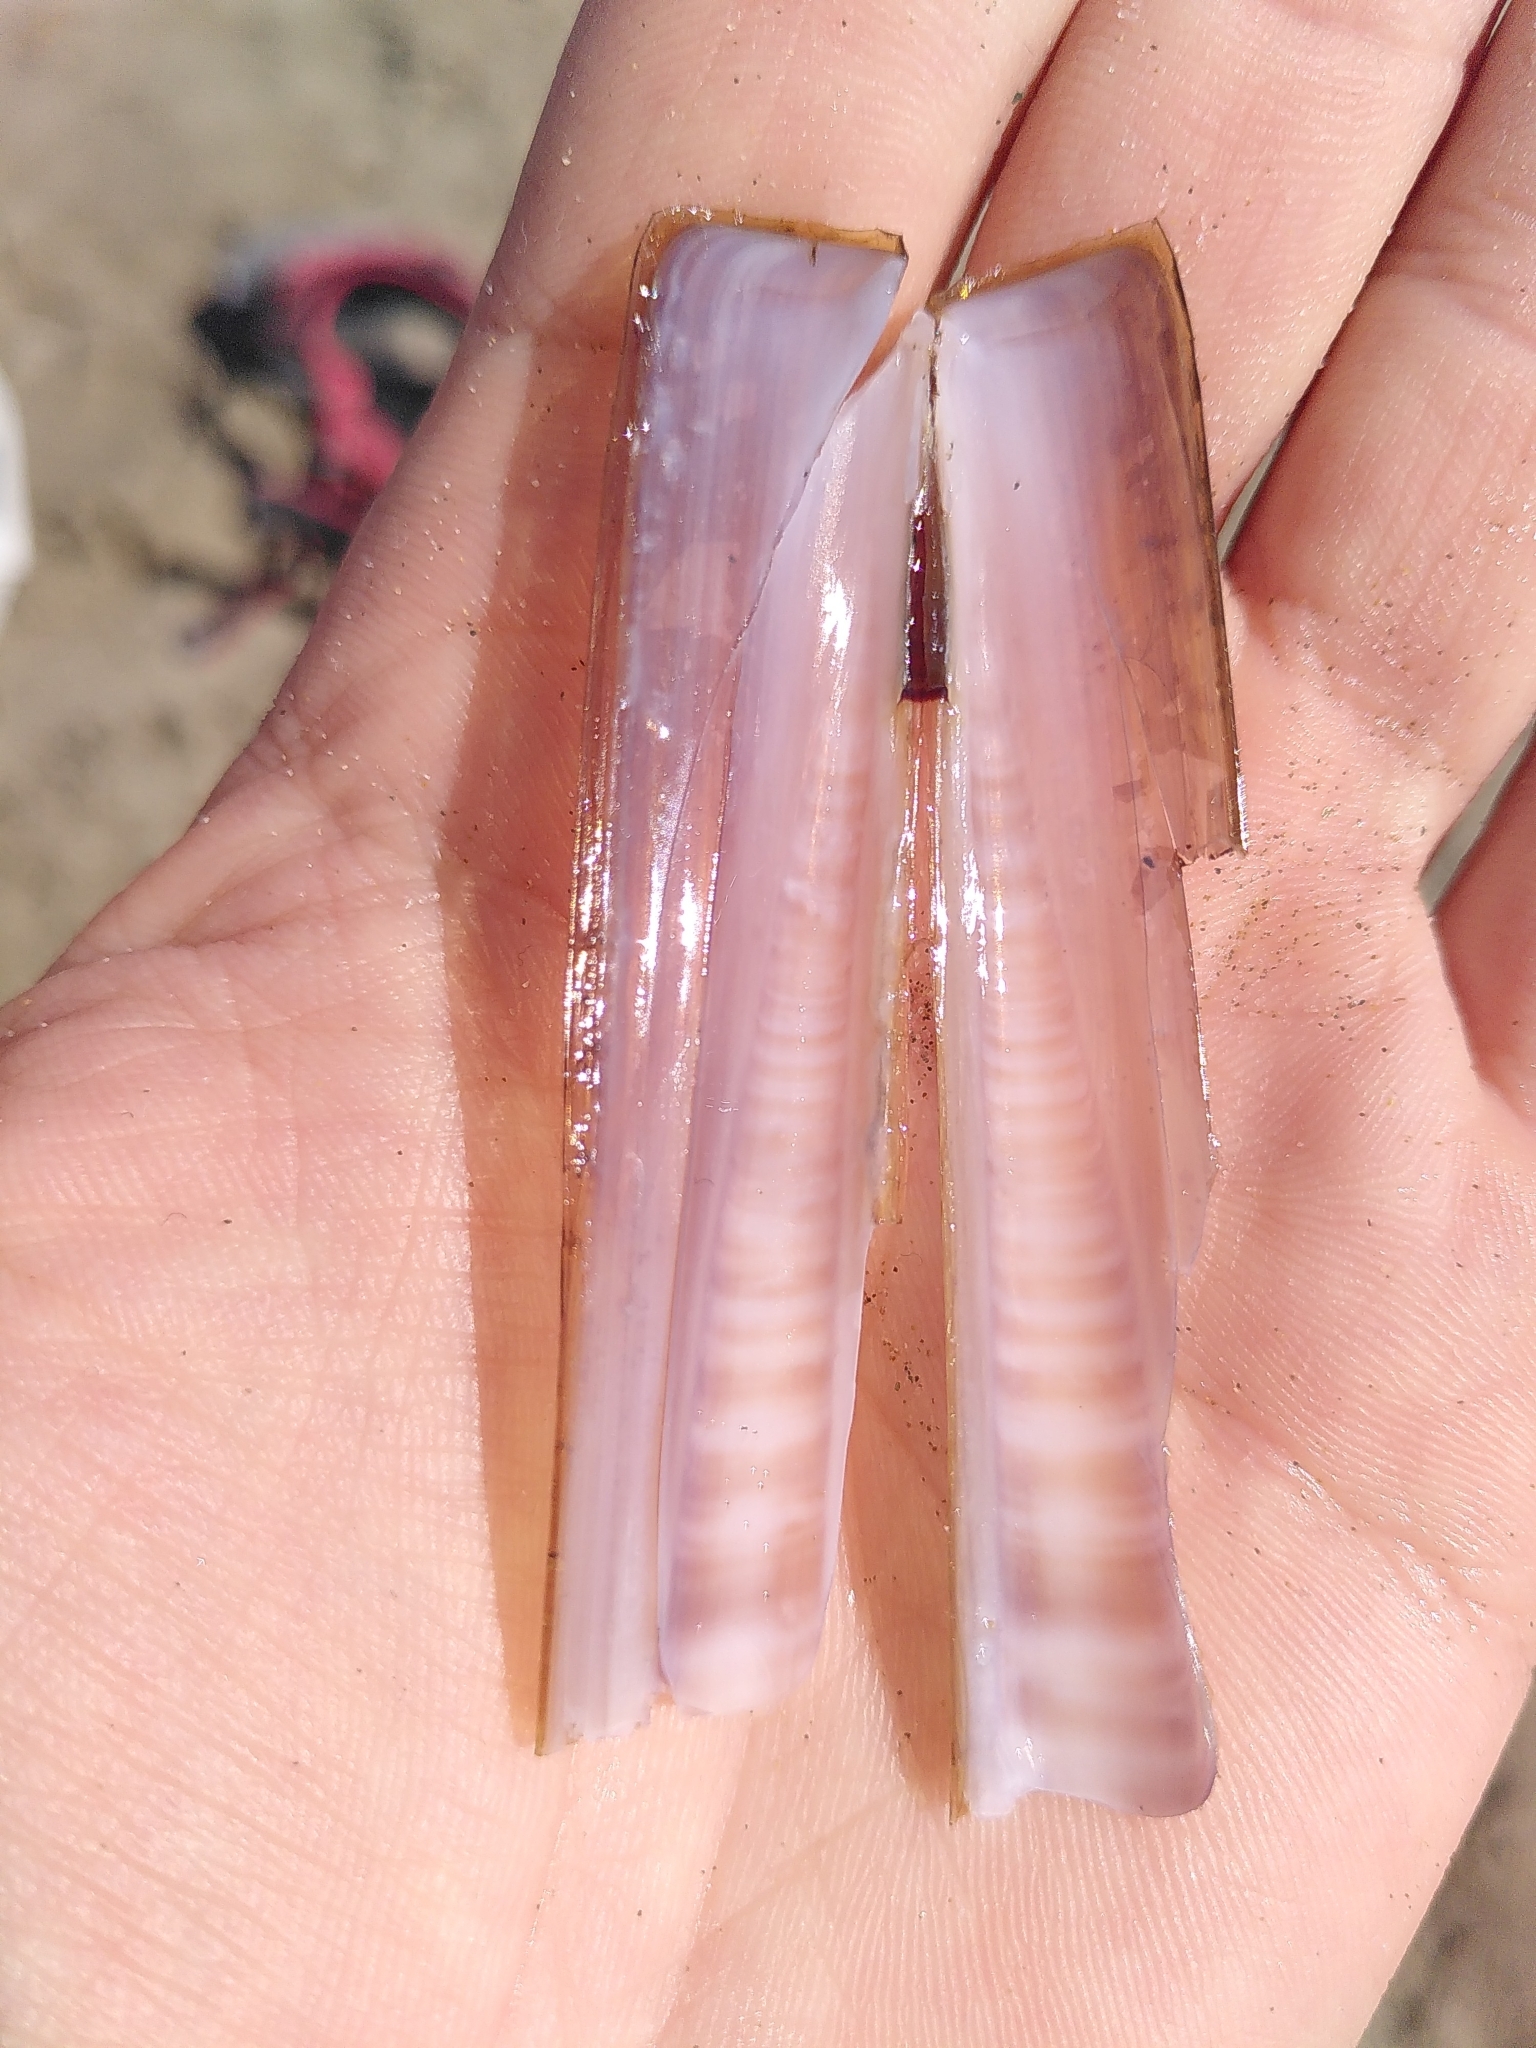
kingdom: Animalia
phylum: Mollusca
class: Bivalvia
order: Adapedonta
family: Pharidae
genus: Ensis
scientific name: Ensis minor
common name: Minor jackknife clam
